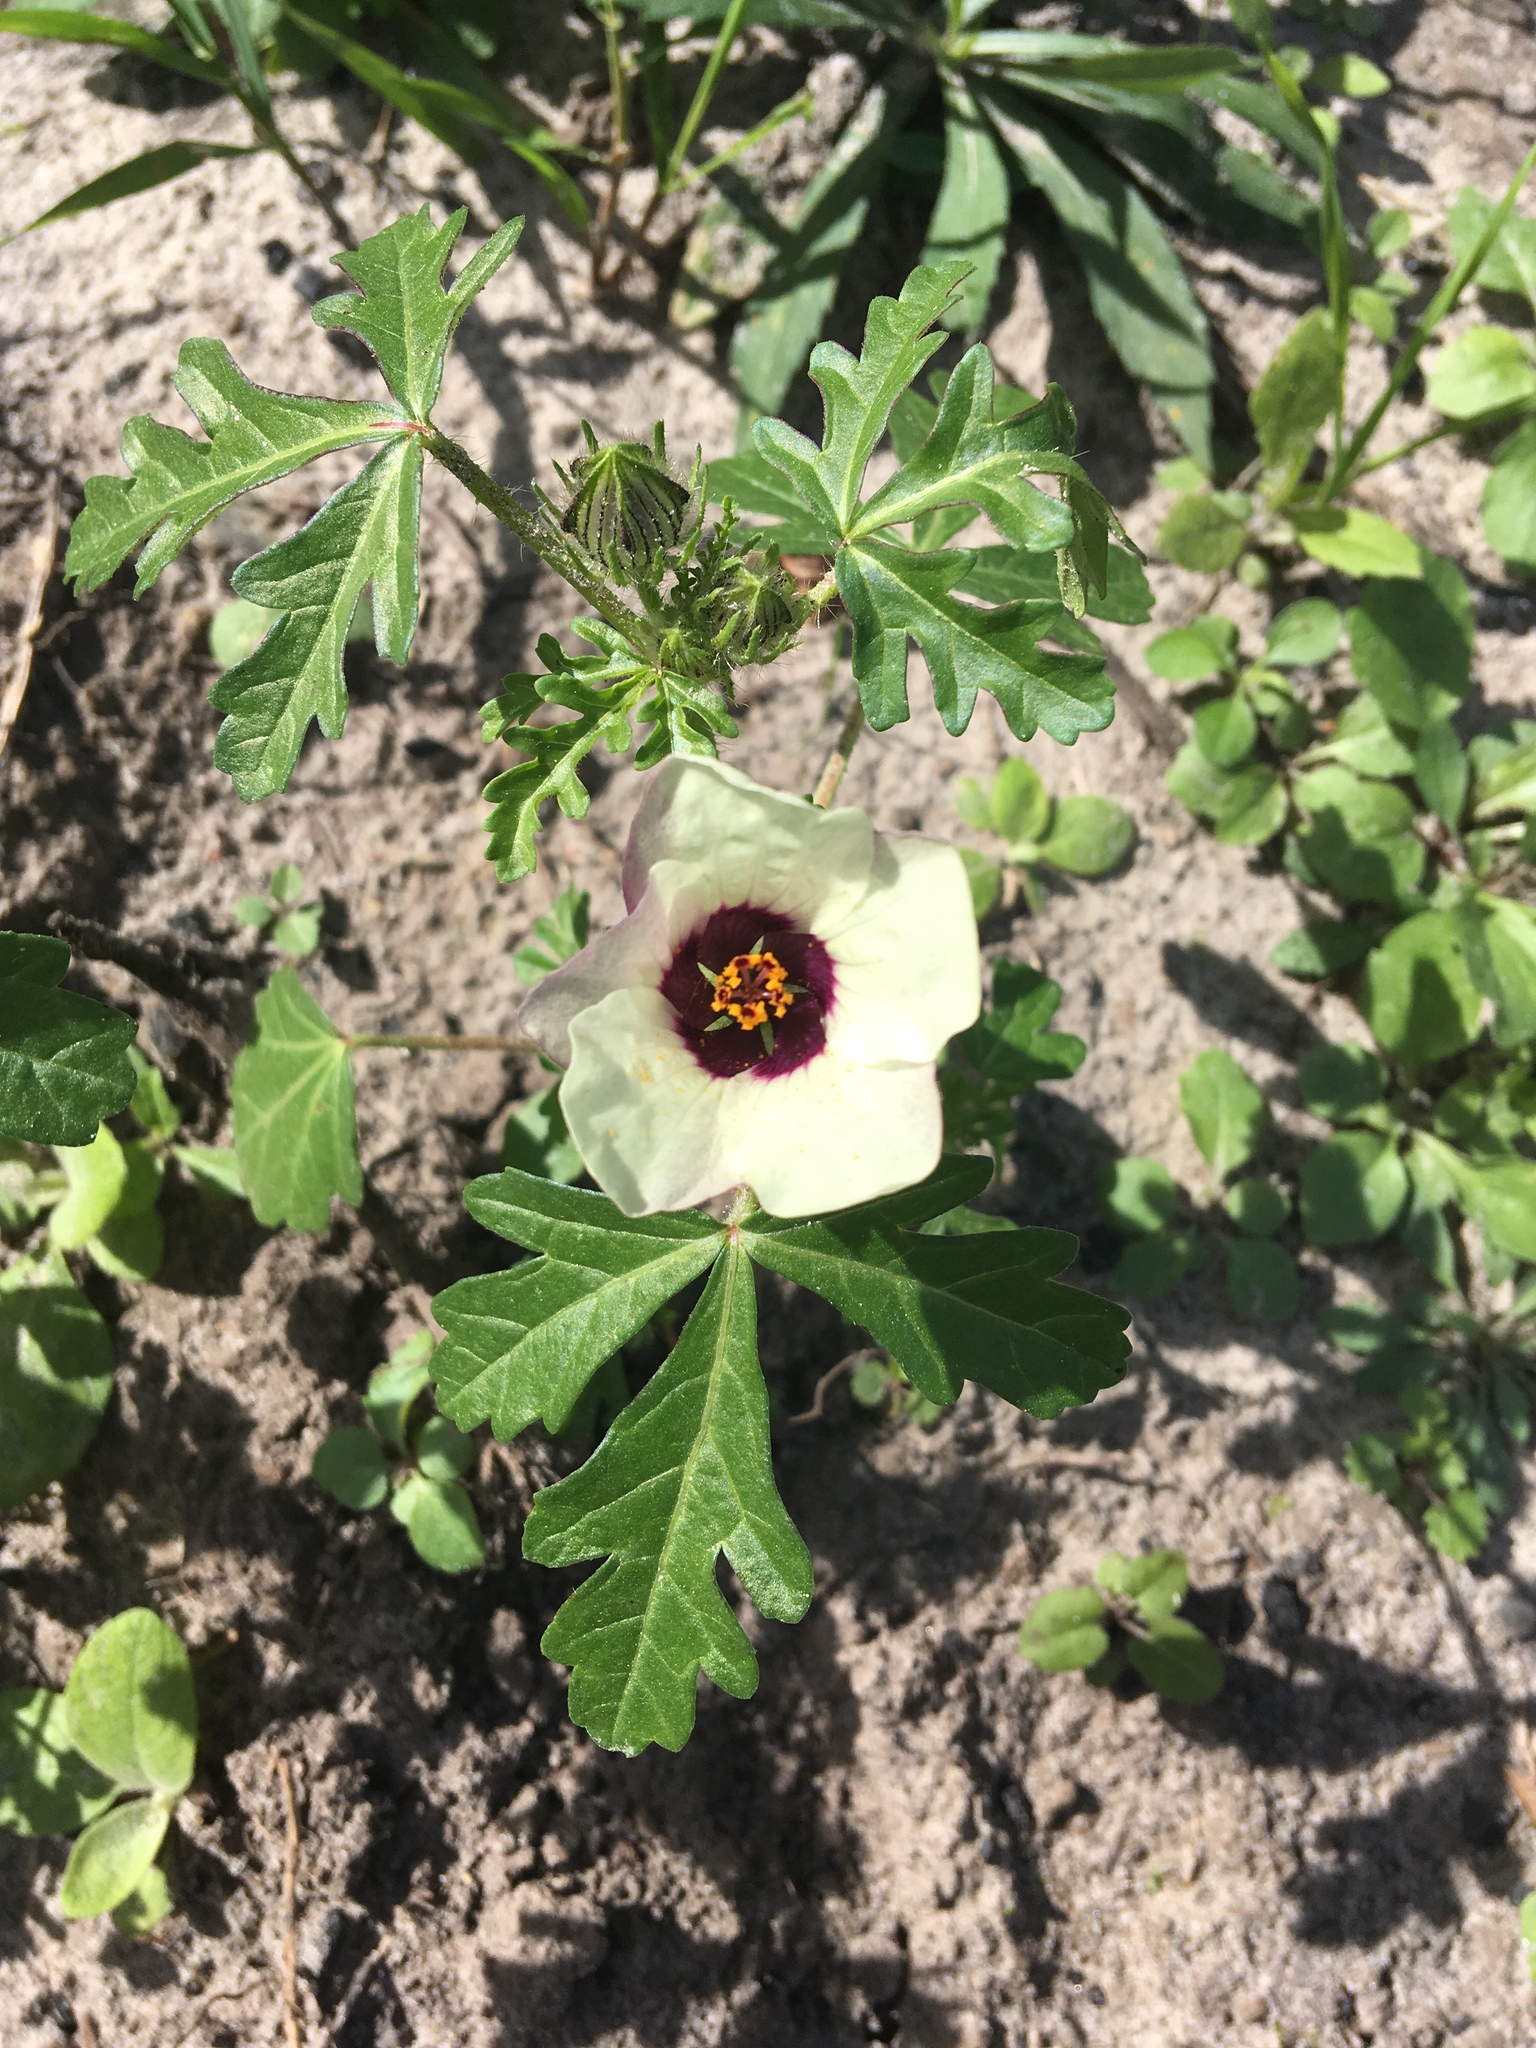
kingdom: Plantae
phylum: Tracheophyta
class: Magnoliopsida
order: Malvales
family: Malvaceae
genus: Hibiscus
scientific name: Hibiscus trionum
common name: Bladder ketmia
